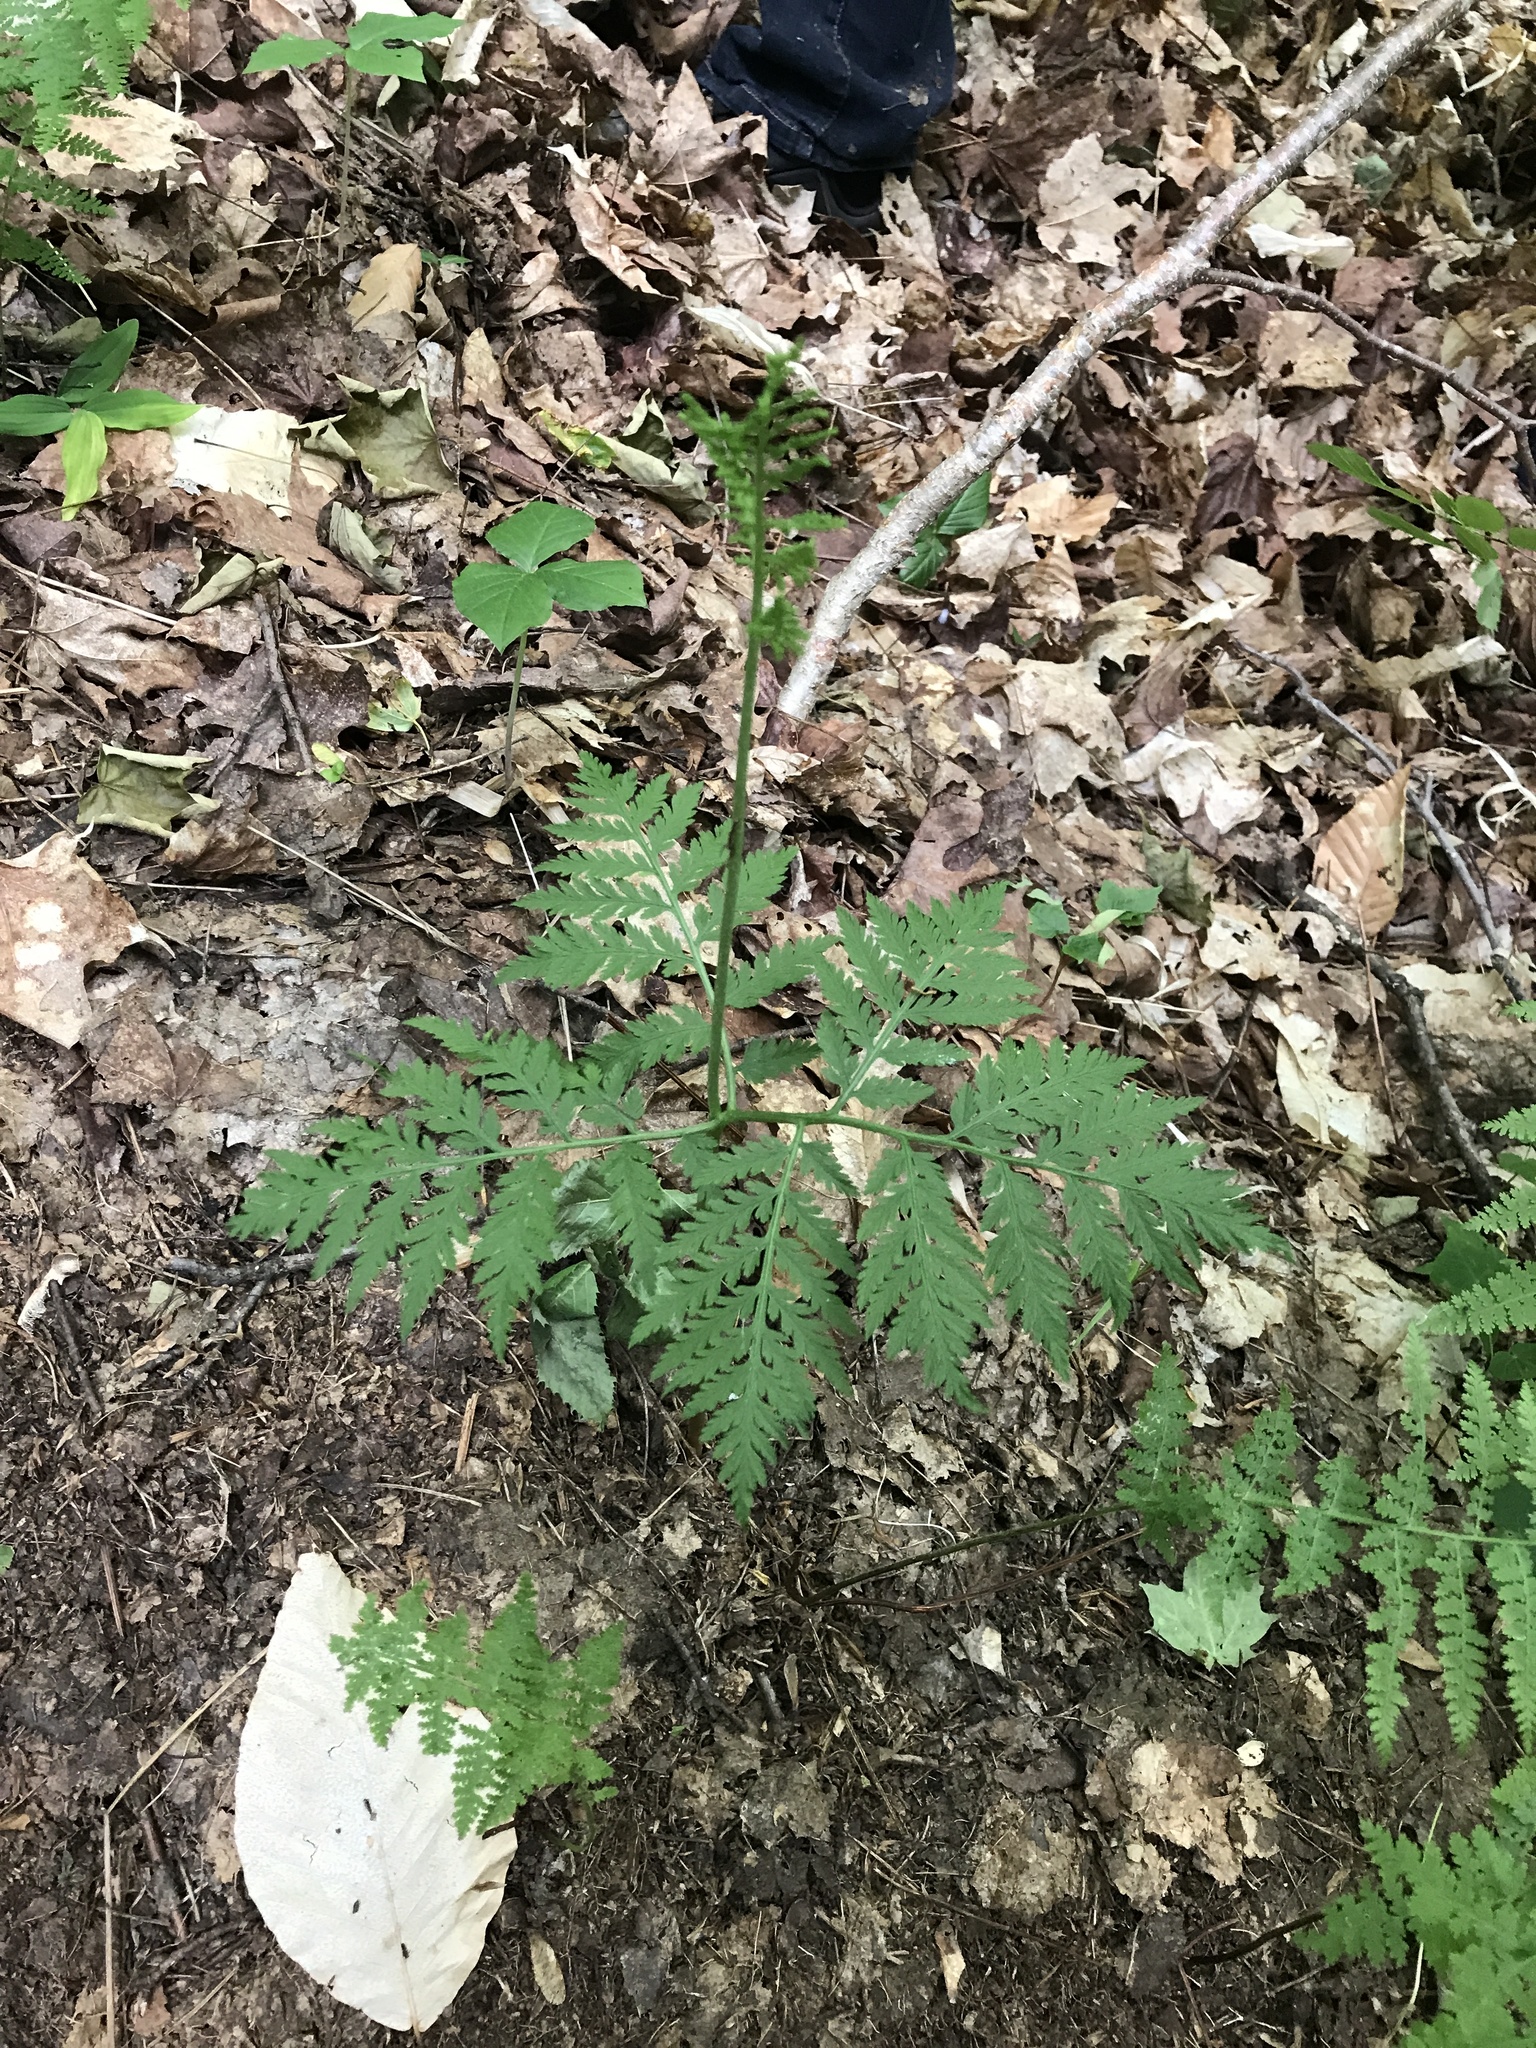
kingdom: Plantae
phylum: Tracheophyta
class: Polypodiopsida
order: Ophioglossales
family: Ophioglossaceae
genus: Botrypus
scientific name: Botrypus virginianus
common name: Common grapefern
